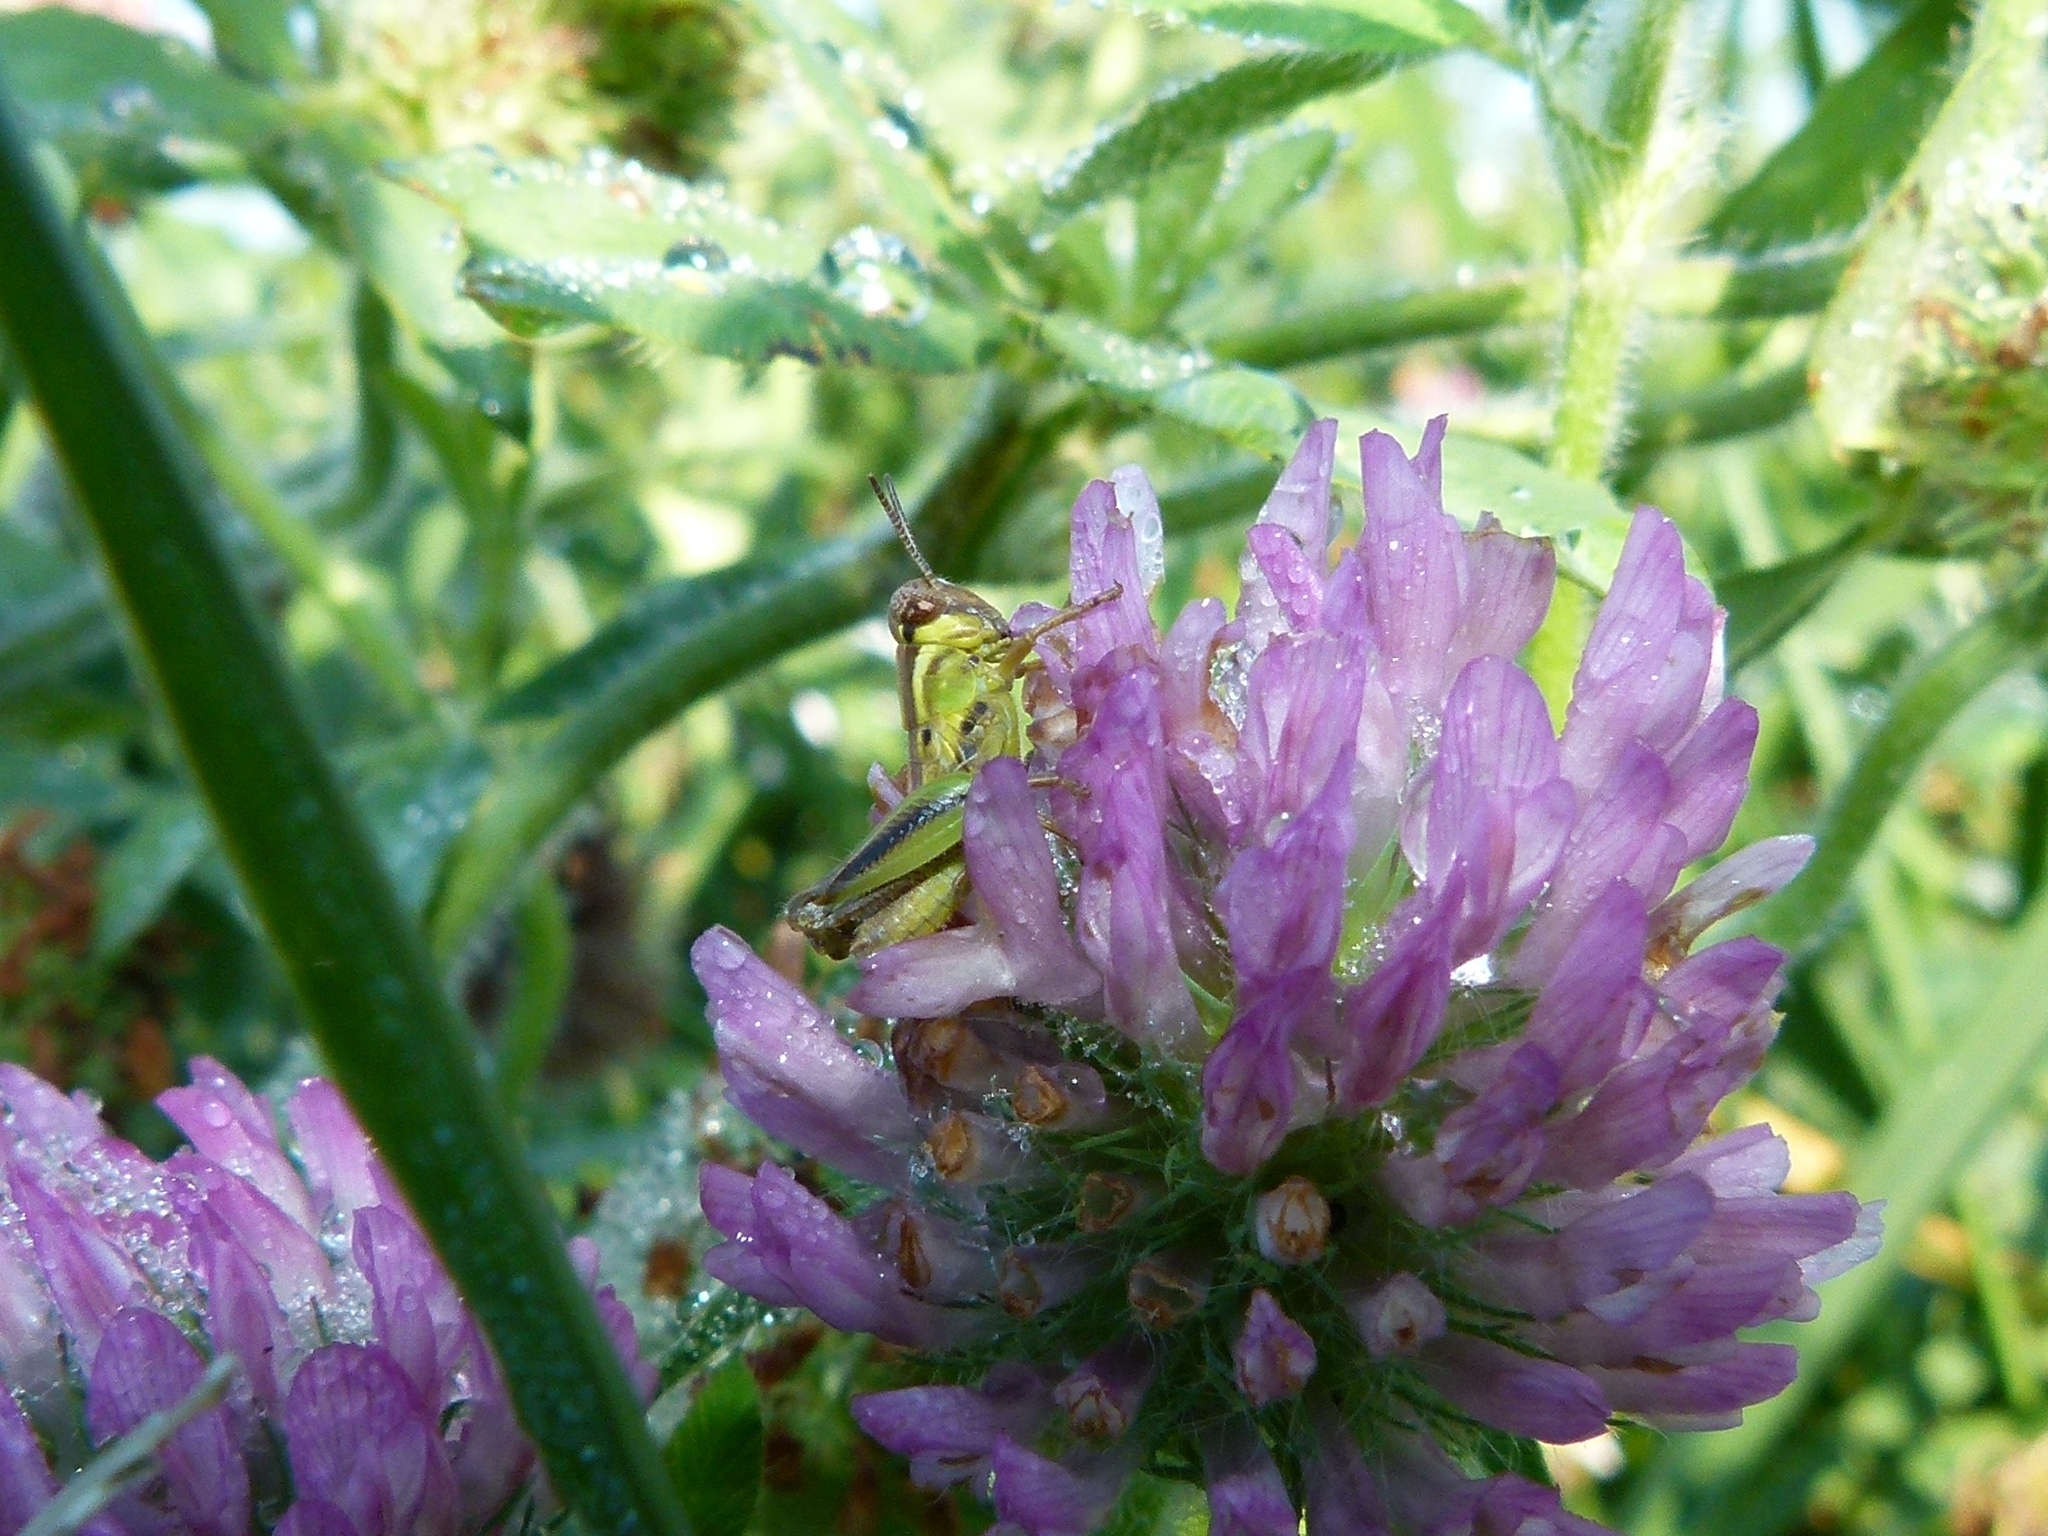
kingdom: Plantae
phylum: Tracheophyta
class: Magnoliopsida
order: Fabales
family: Fabaceae
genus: Trifolium
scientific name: Trifolium pratense
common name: Red clover
